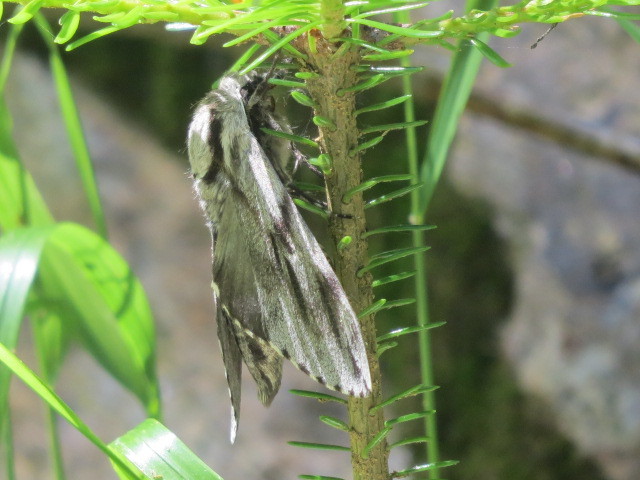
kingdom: Animalia
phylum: Arthropoda
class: Insecta
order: Lepidoptera
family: Sphingidae
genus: Sphinx
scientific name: Sphinx pinastri
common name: Pine hawk-moth
